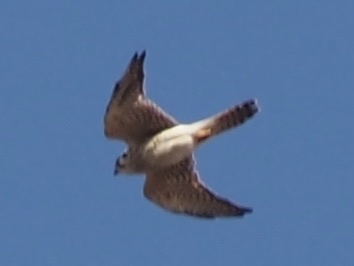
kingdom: Animalia
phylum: Chordata
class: Aves
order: Falconiformes
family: Falconidae
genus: Falco
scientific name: Falco sparverius
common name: American kestrel
